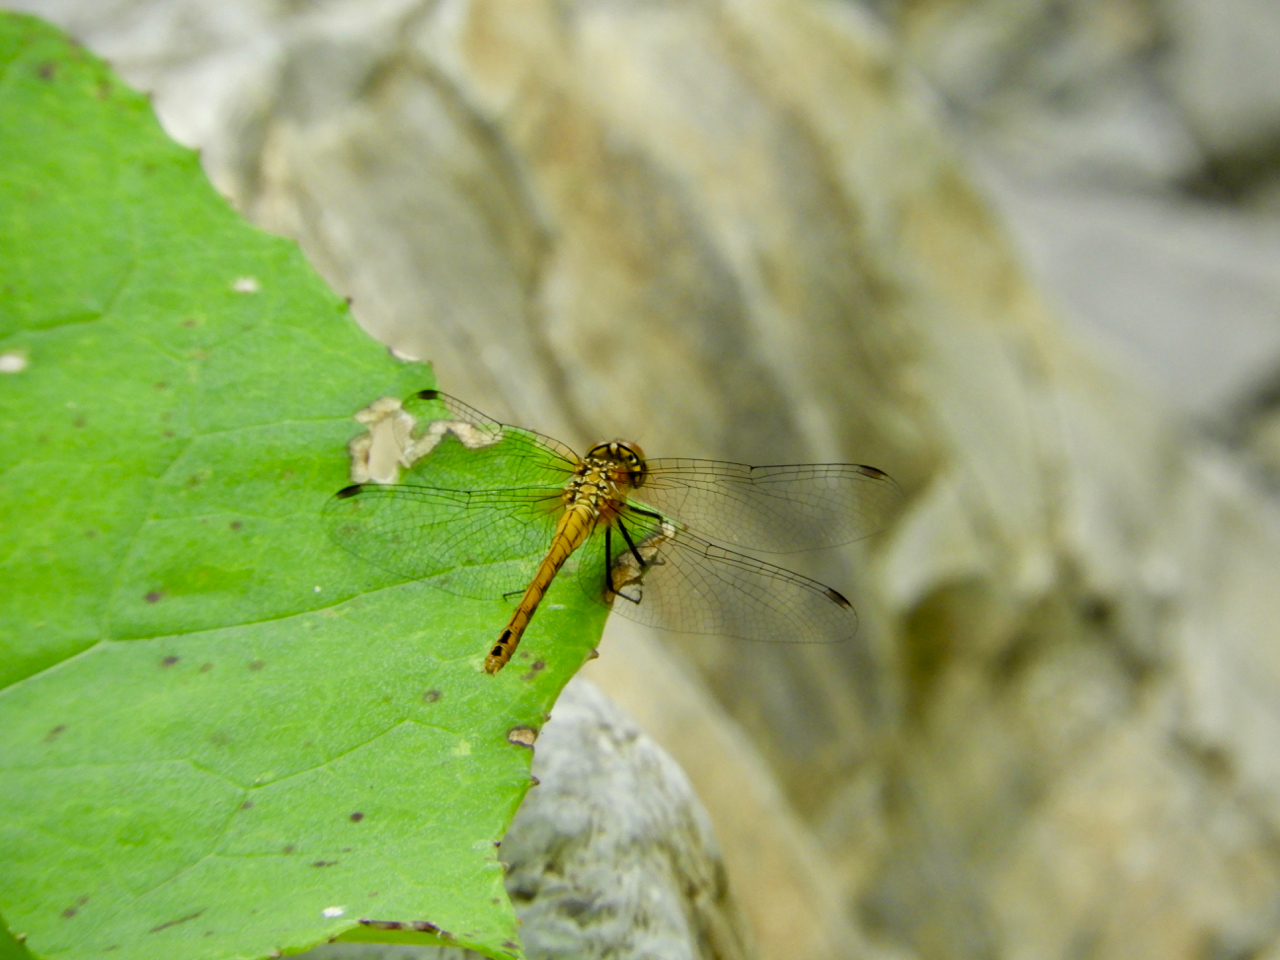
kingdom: Animalia
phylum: Arthropoda
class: Insecta
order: Odonata
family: Libellulidae
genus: Sympetrum
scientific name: Sympetrum sanguineum
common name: Ruddy darter
